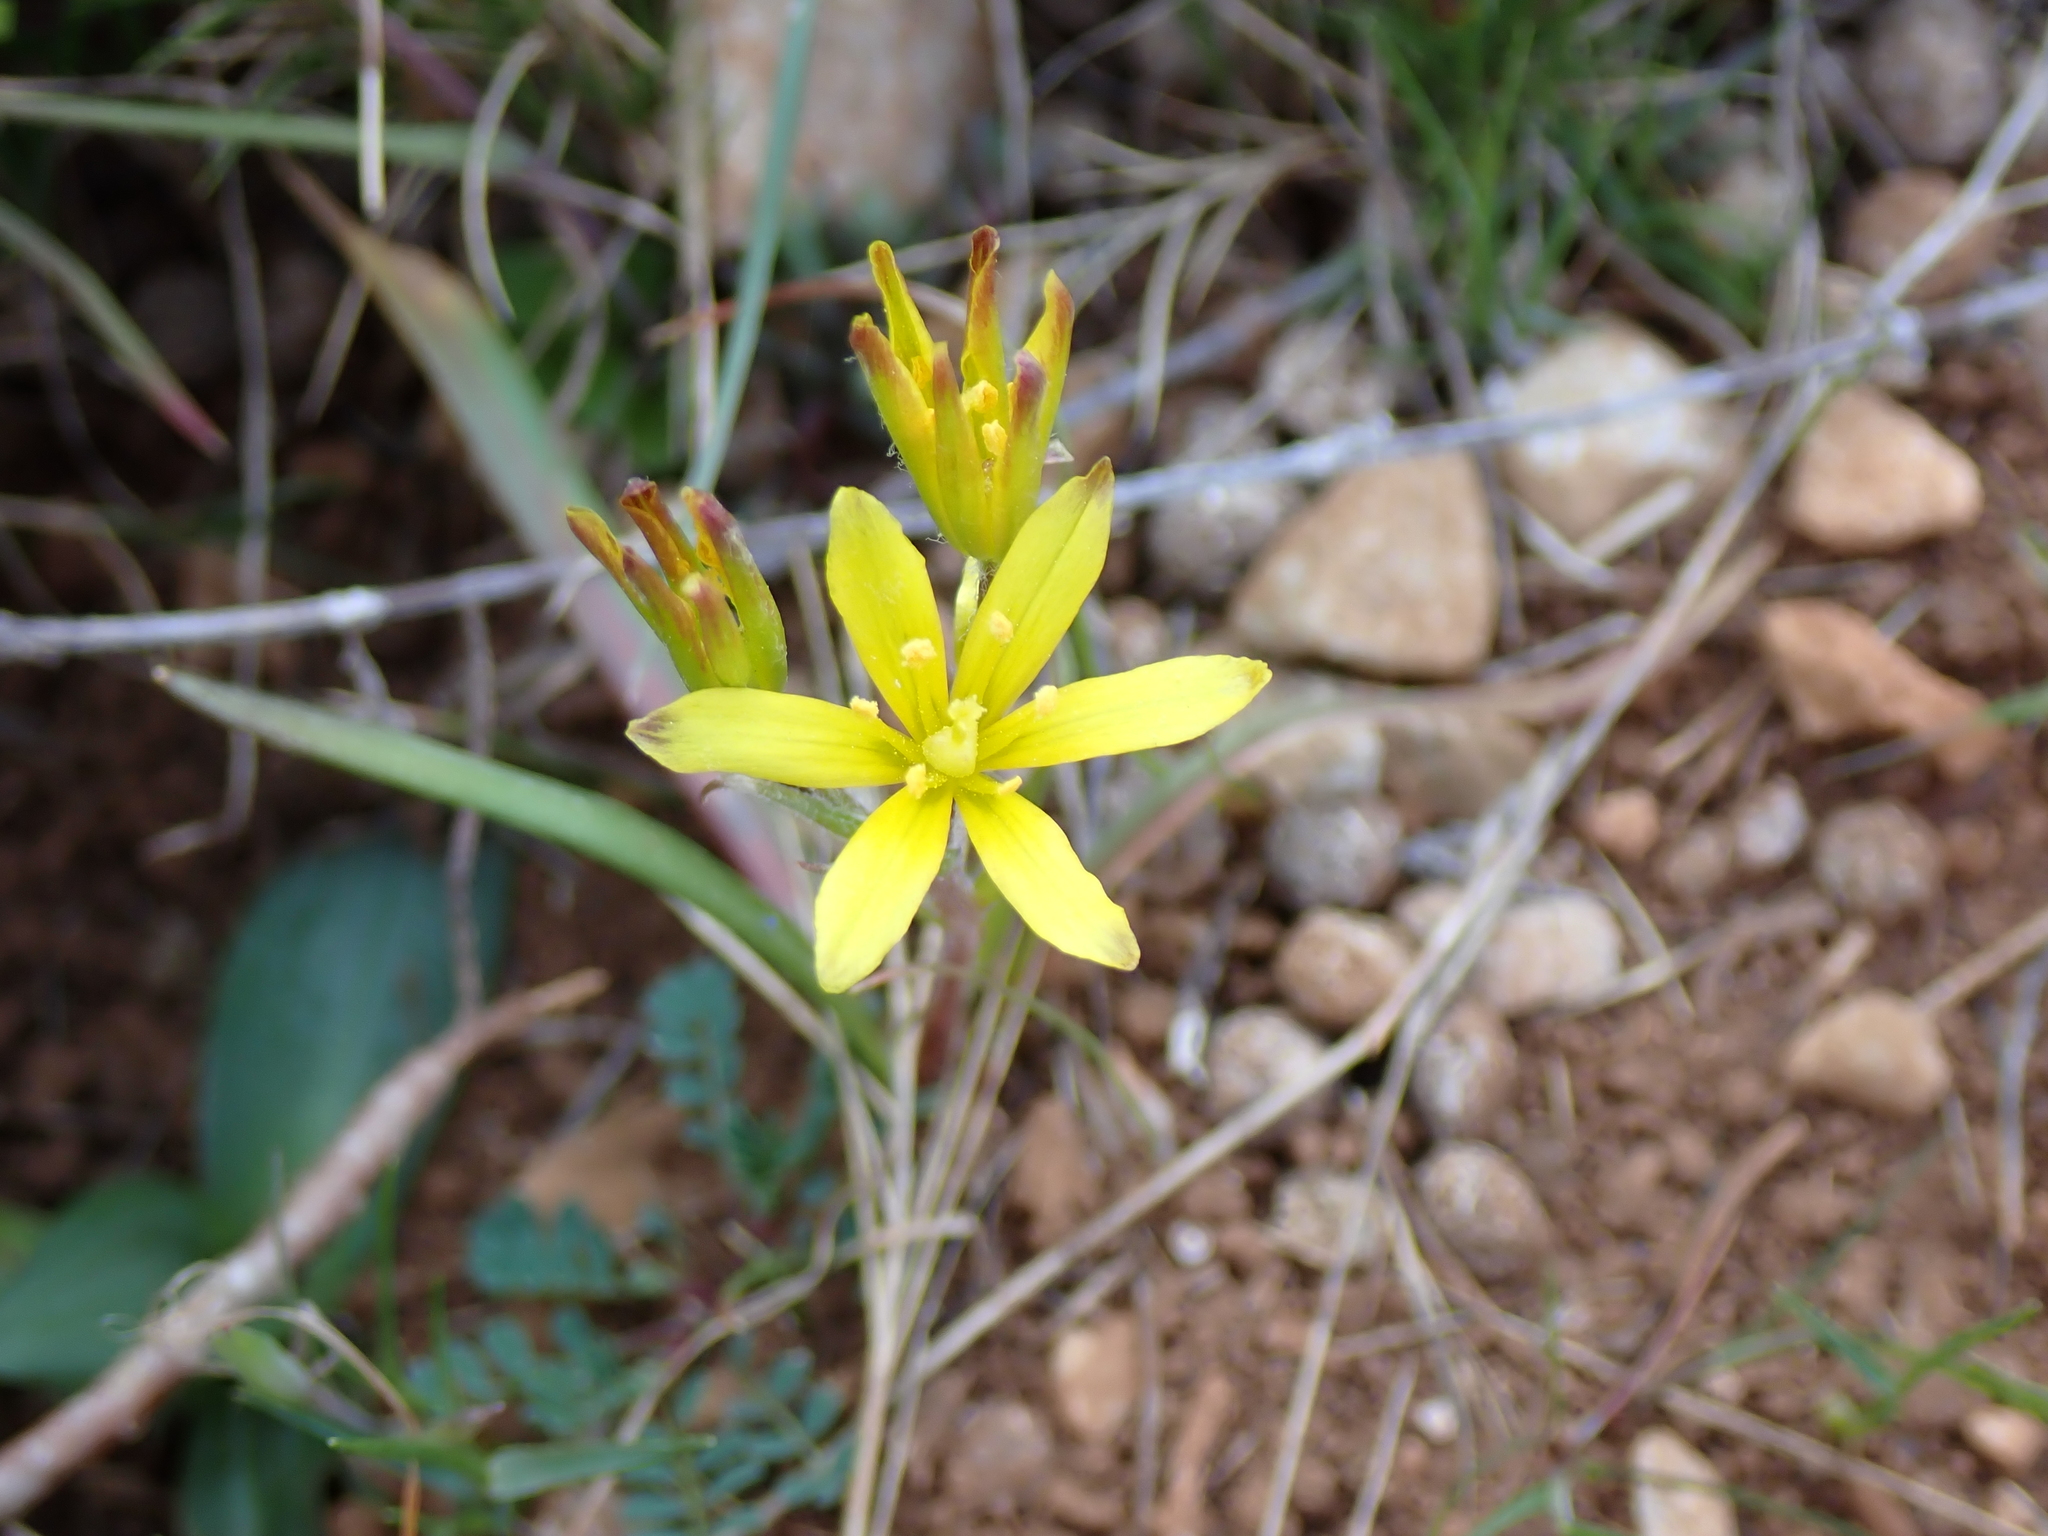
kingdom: Plantae
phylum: Tracheophyta
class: Liliopsida
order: Liliales
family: Liliaceae
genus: Gagea
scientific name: Gagea lacaitae
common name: Gagée de lacaita
